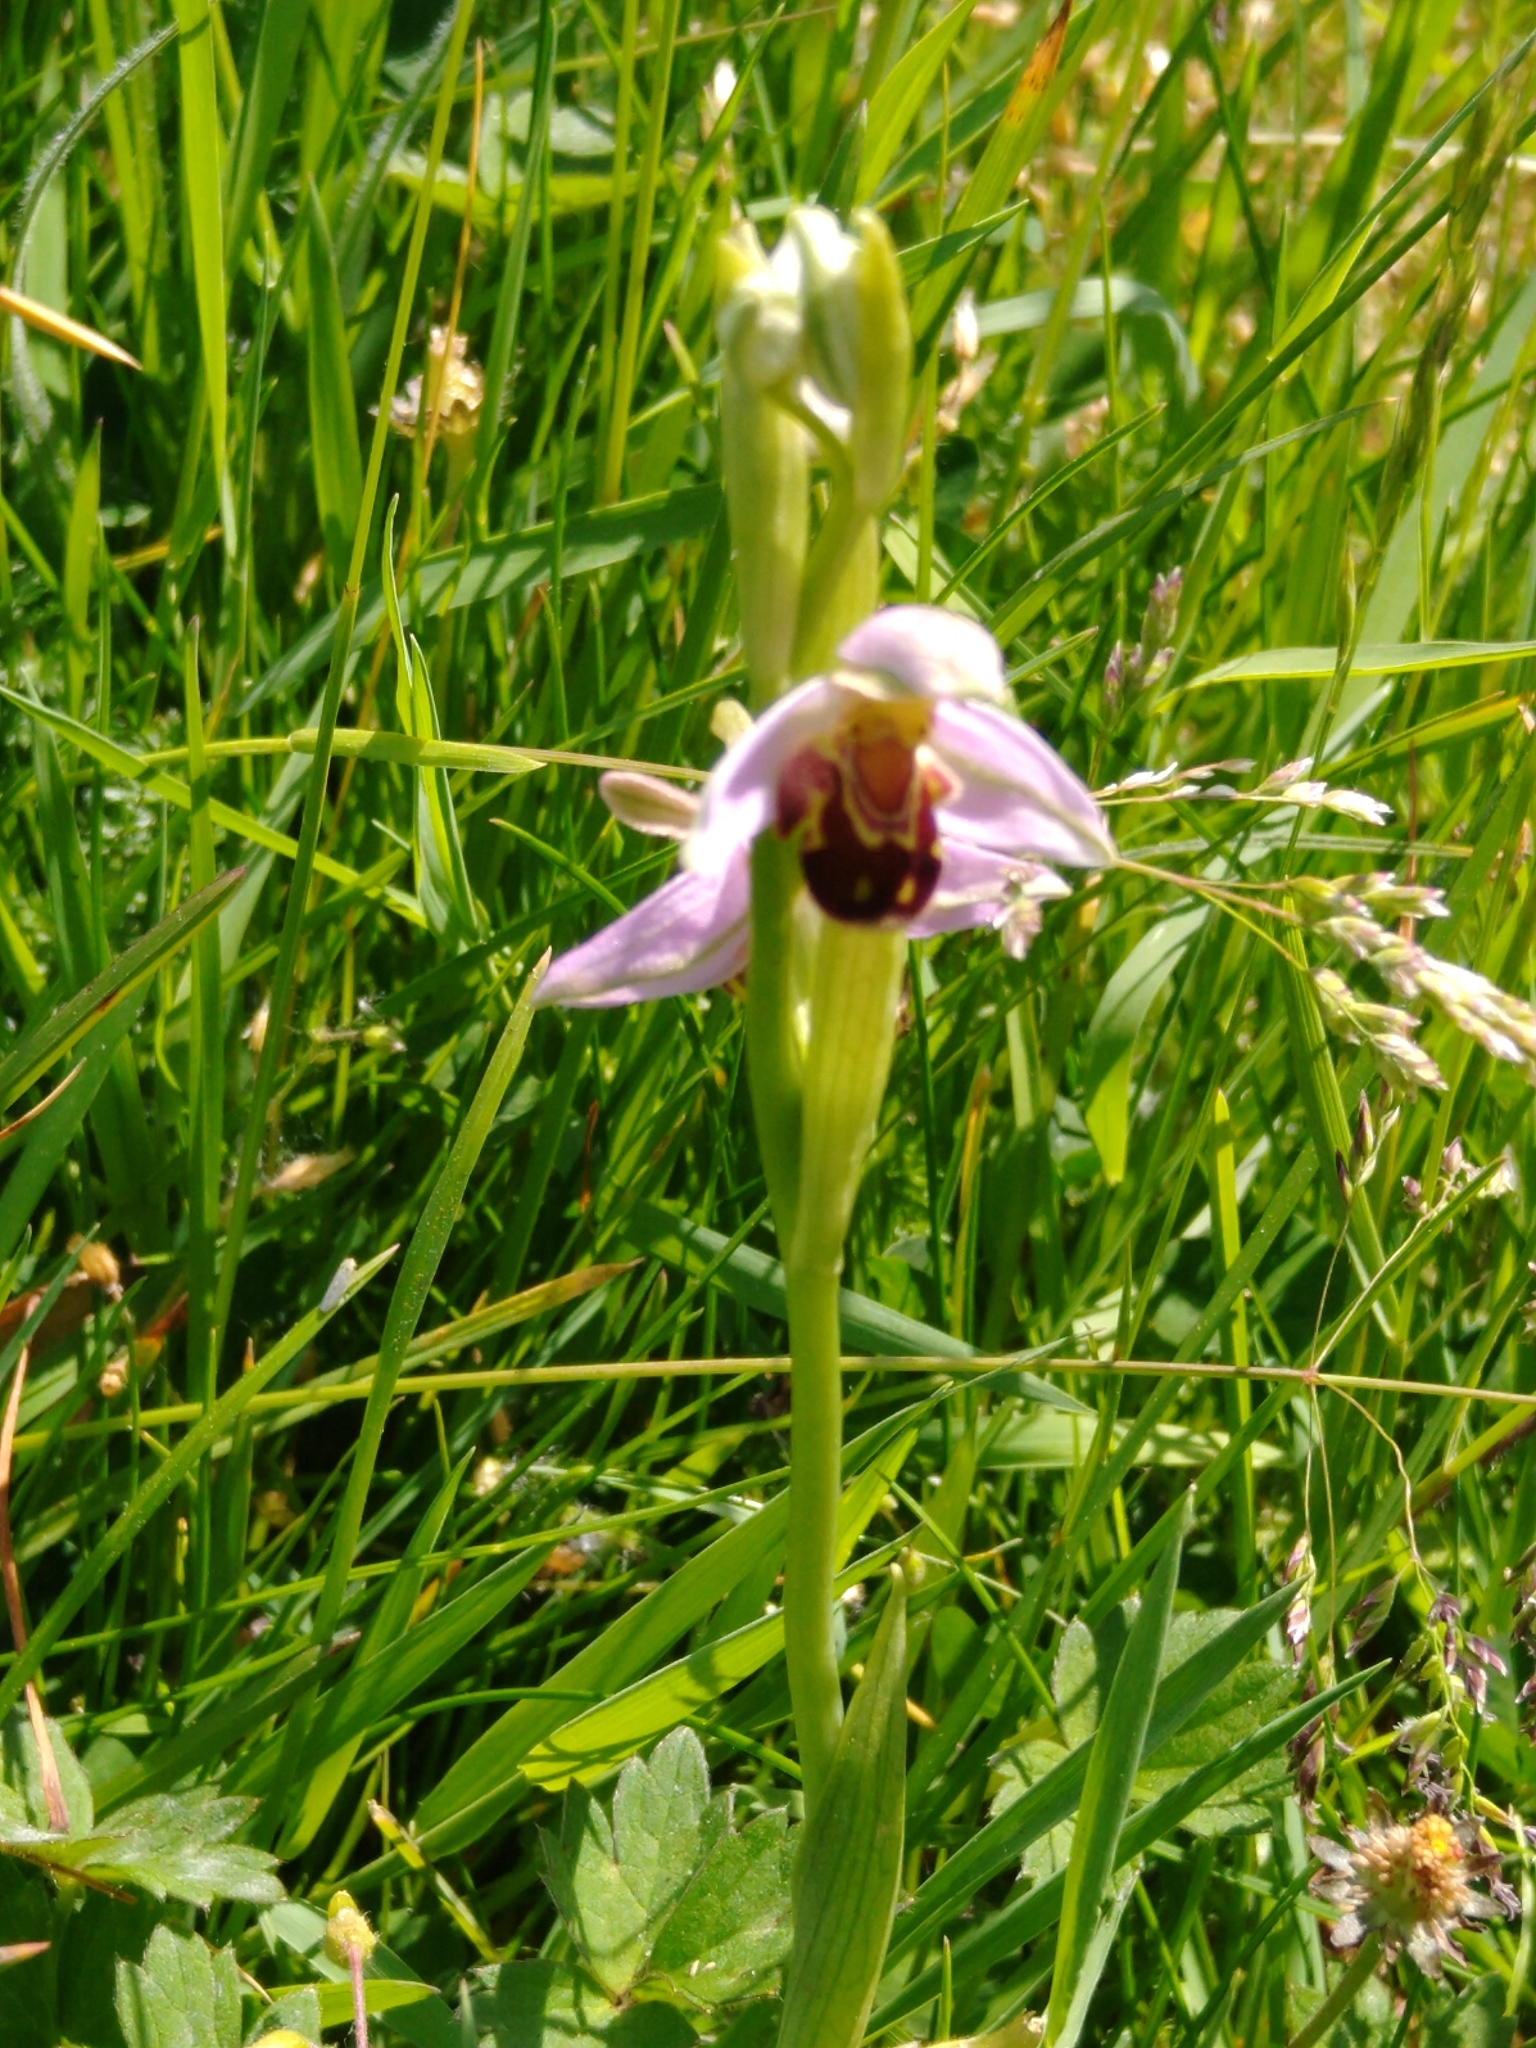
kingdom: Plantae
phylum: Tracheophyta
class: Liliopsida
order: Asparagales
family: Orchidaceae
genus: Ophrys
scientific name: Ophrys apifera
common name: Bee orchid
